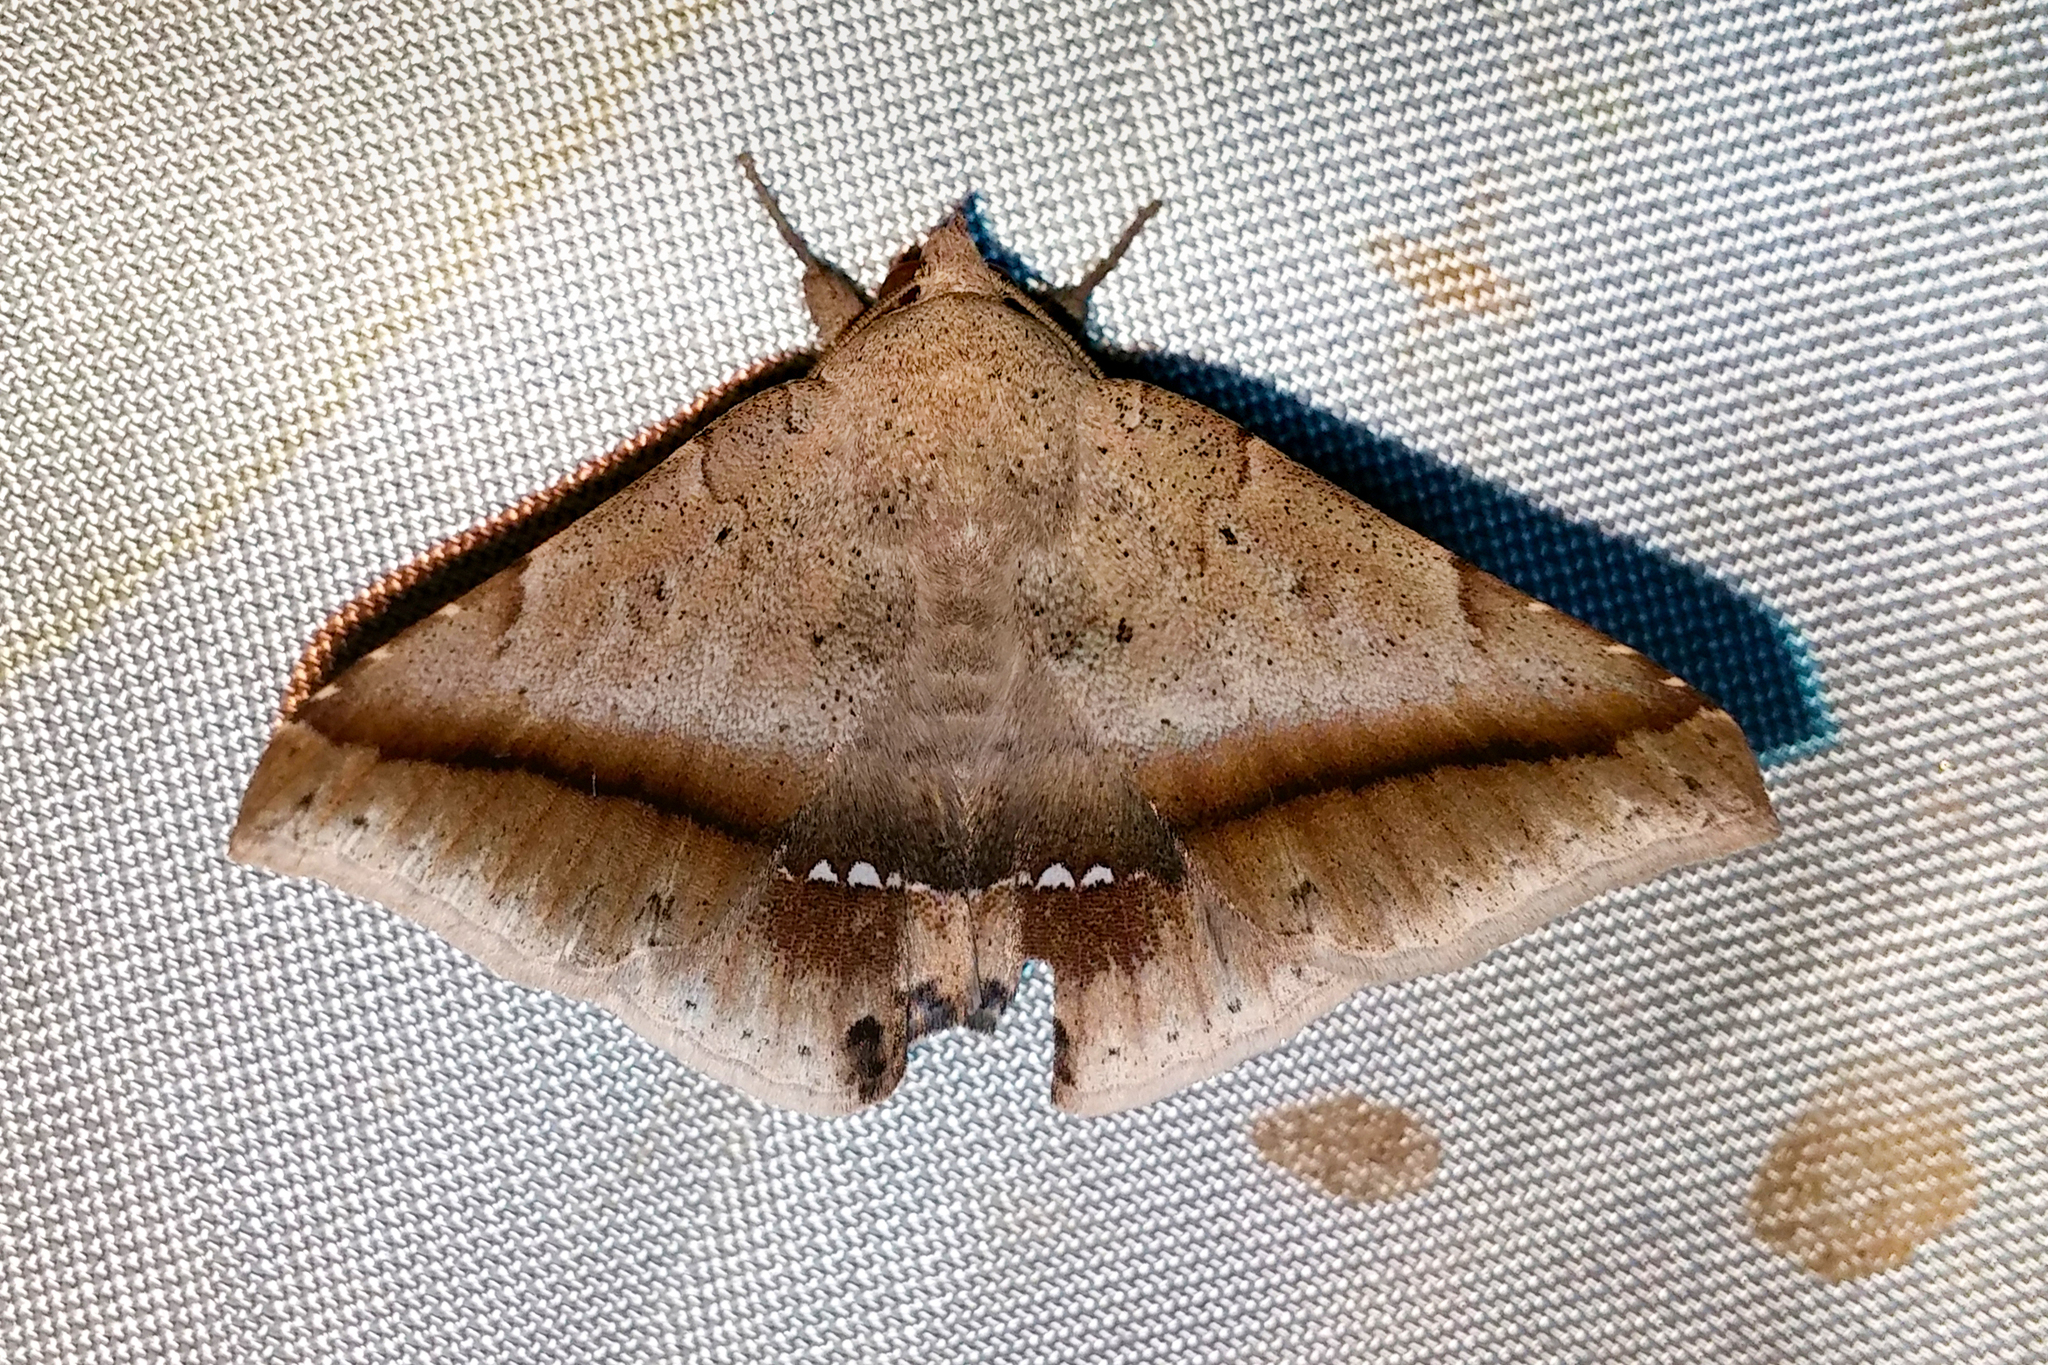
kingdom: Animalia
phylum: Arthropoda
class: Insecta
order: Lepidoptera
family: Erebidae
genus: Macaldenia
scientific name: Macaldenia palumba
